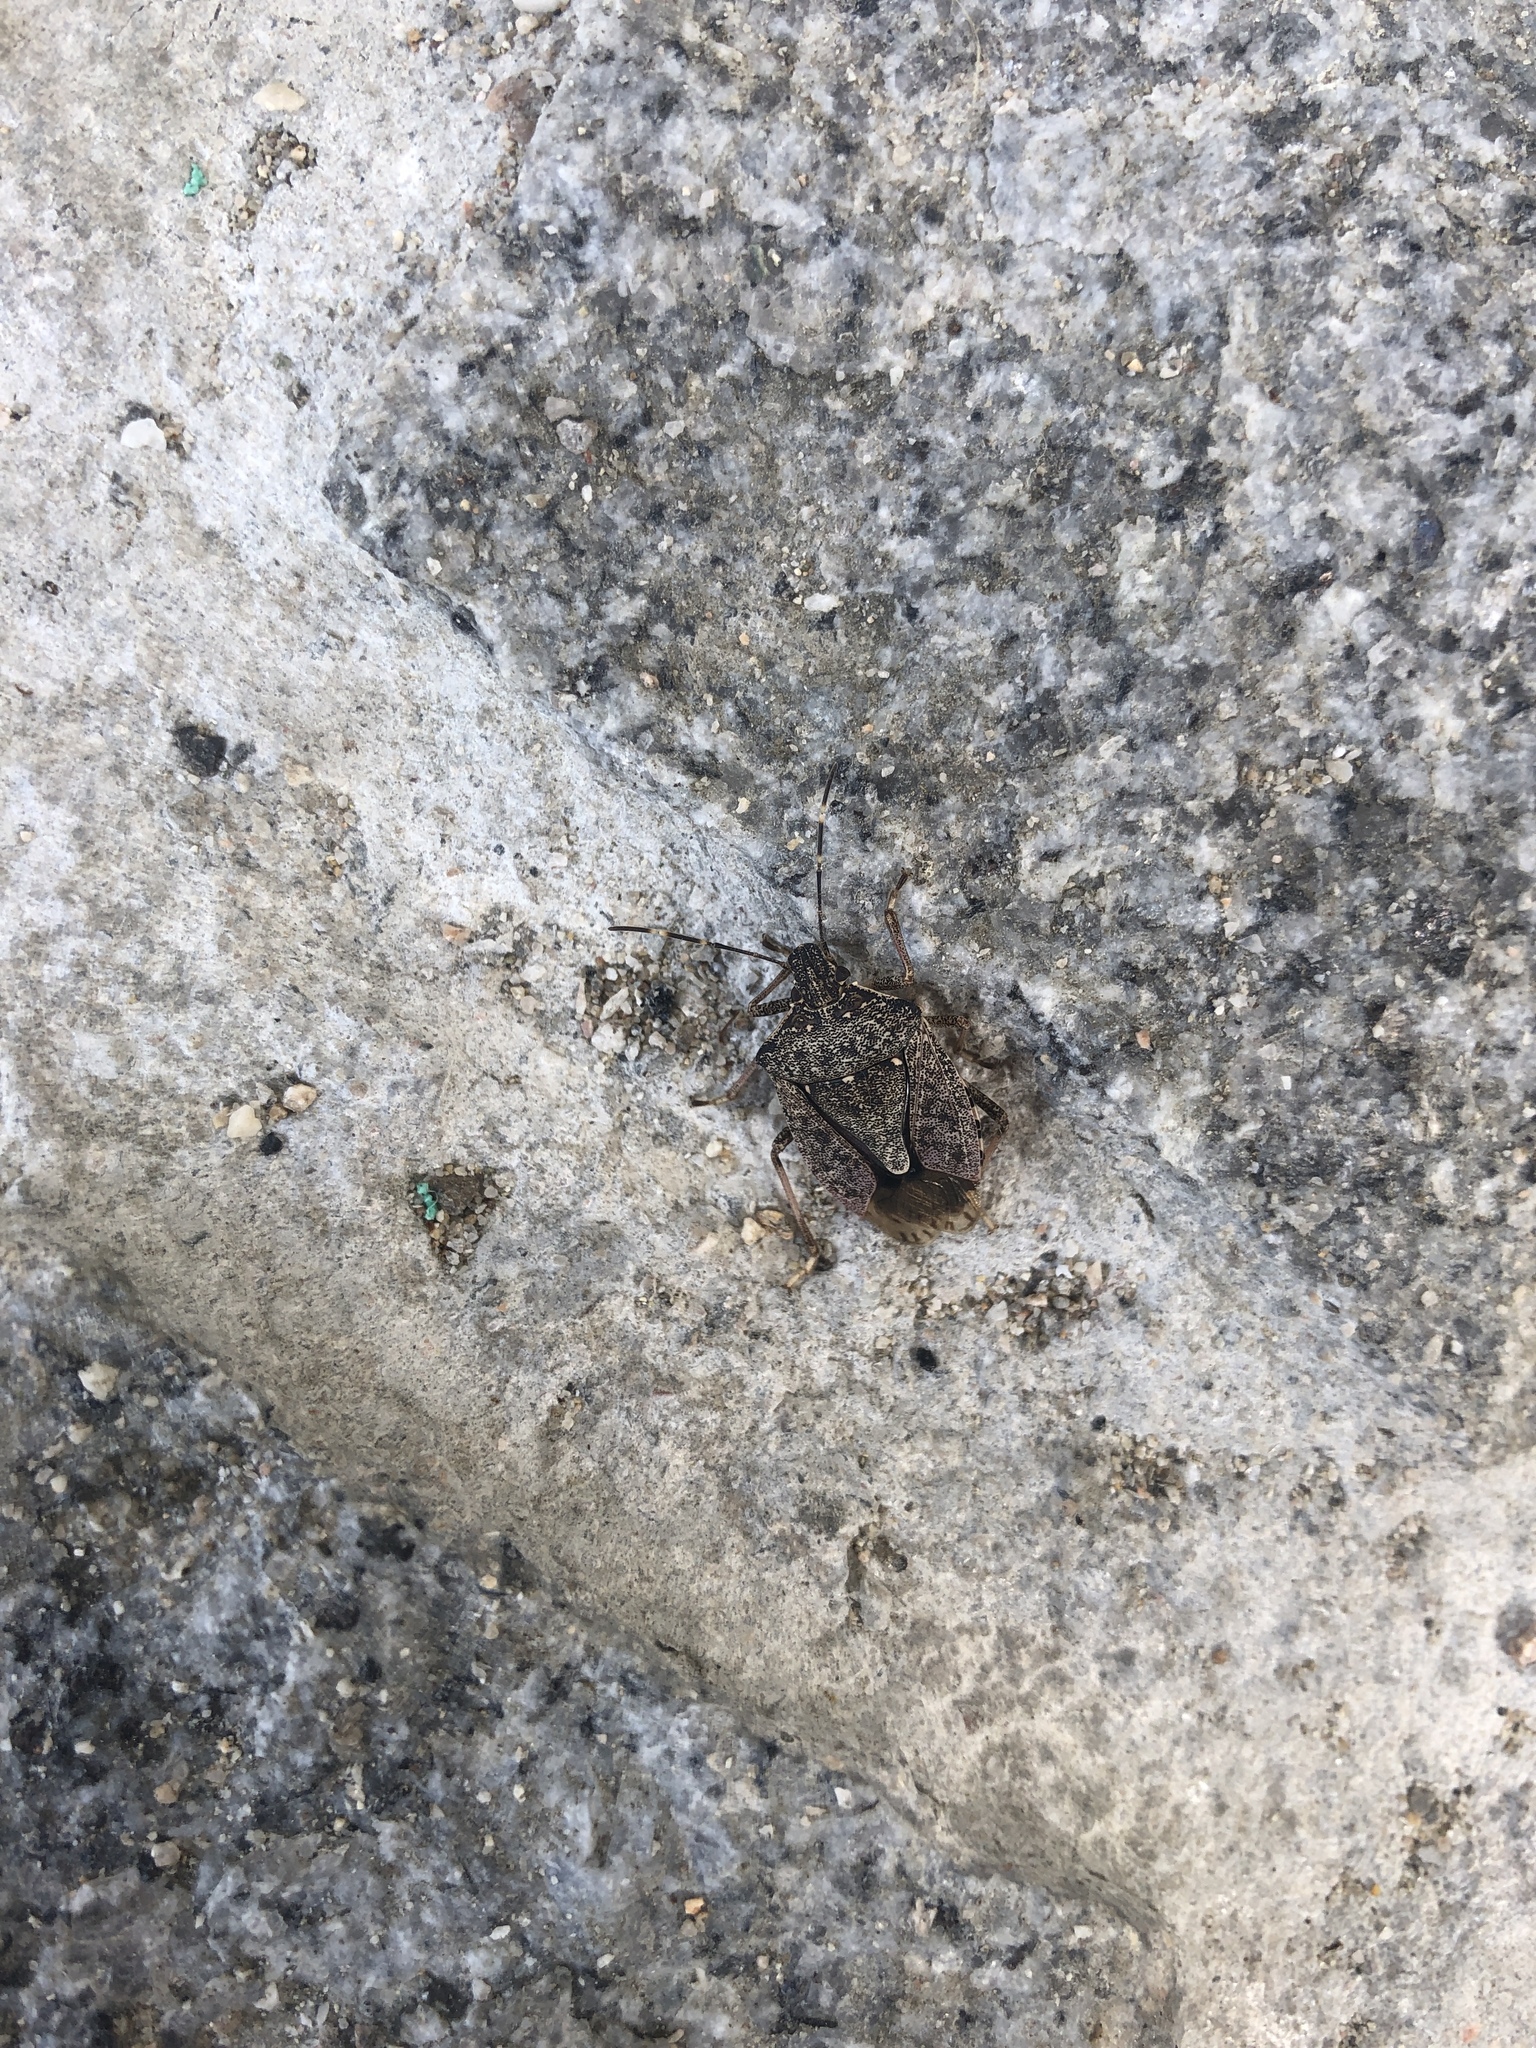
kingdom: Animalia
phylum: Arthropoda
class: Insecta
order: Hemiptera
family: Pentatomidae
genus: Halyomorpha
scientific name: Halyomorpha halys
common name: Brown marmorated stink bug
